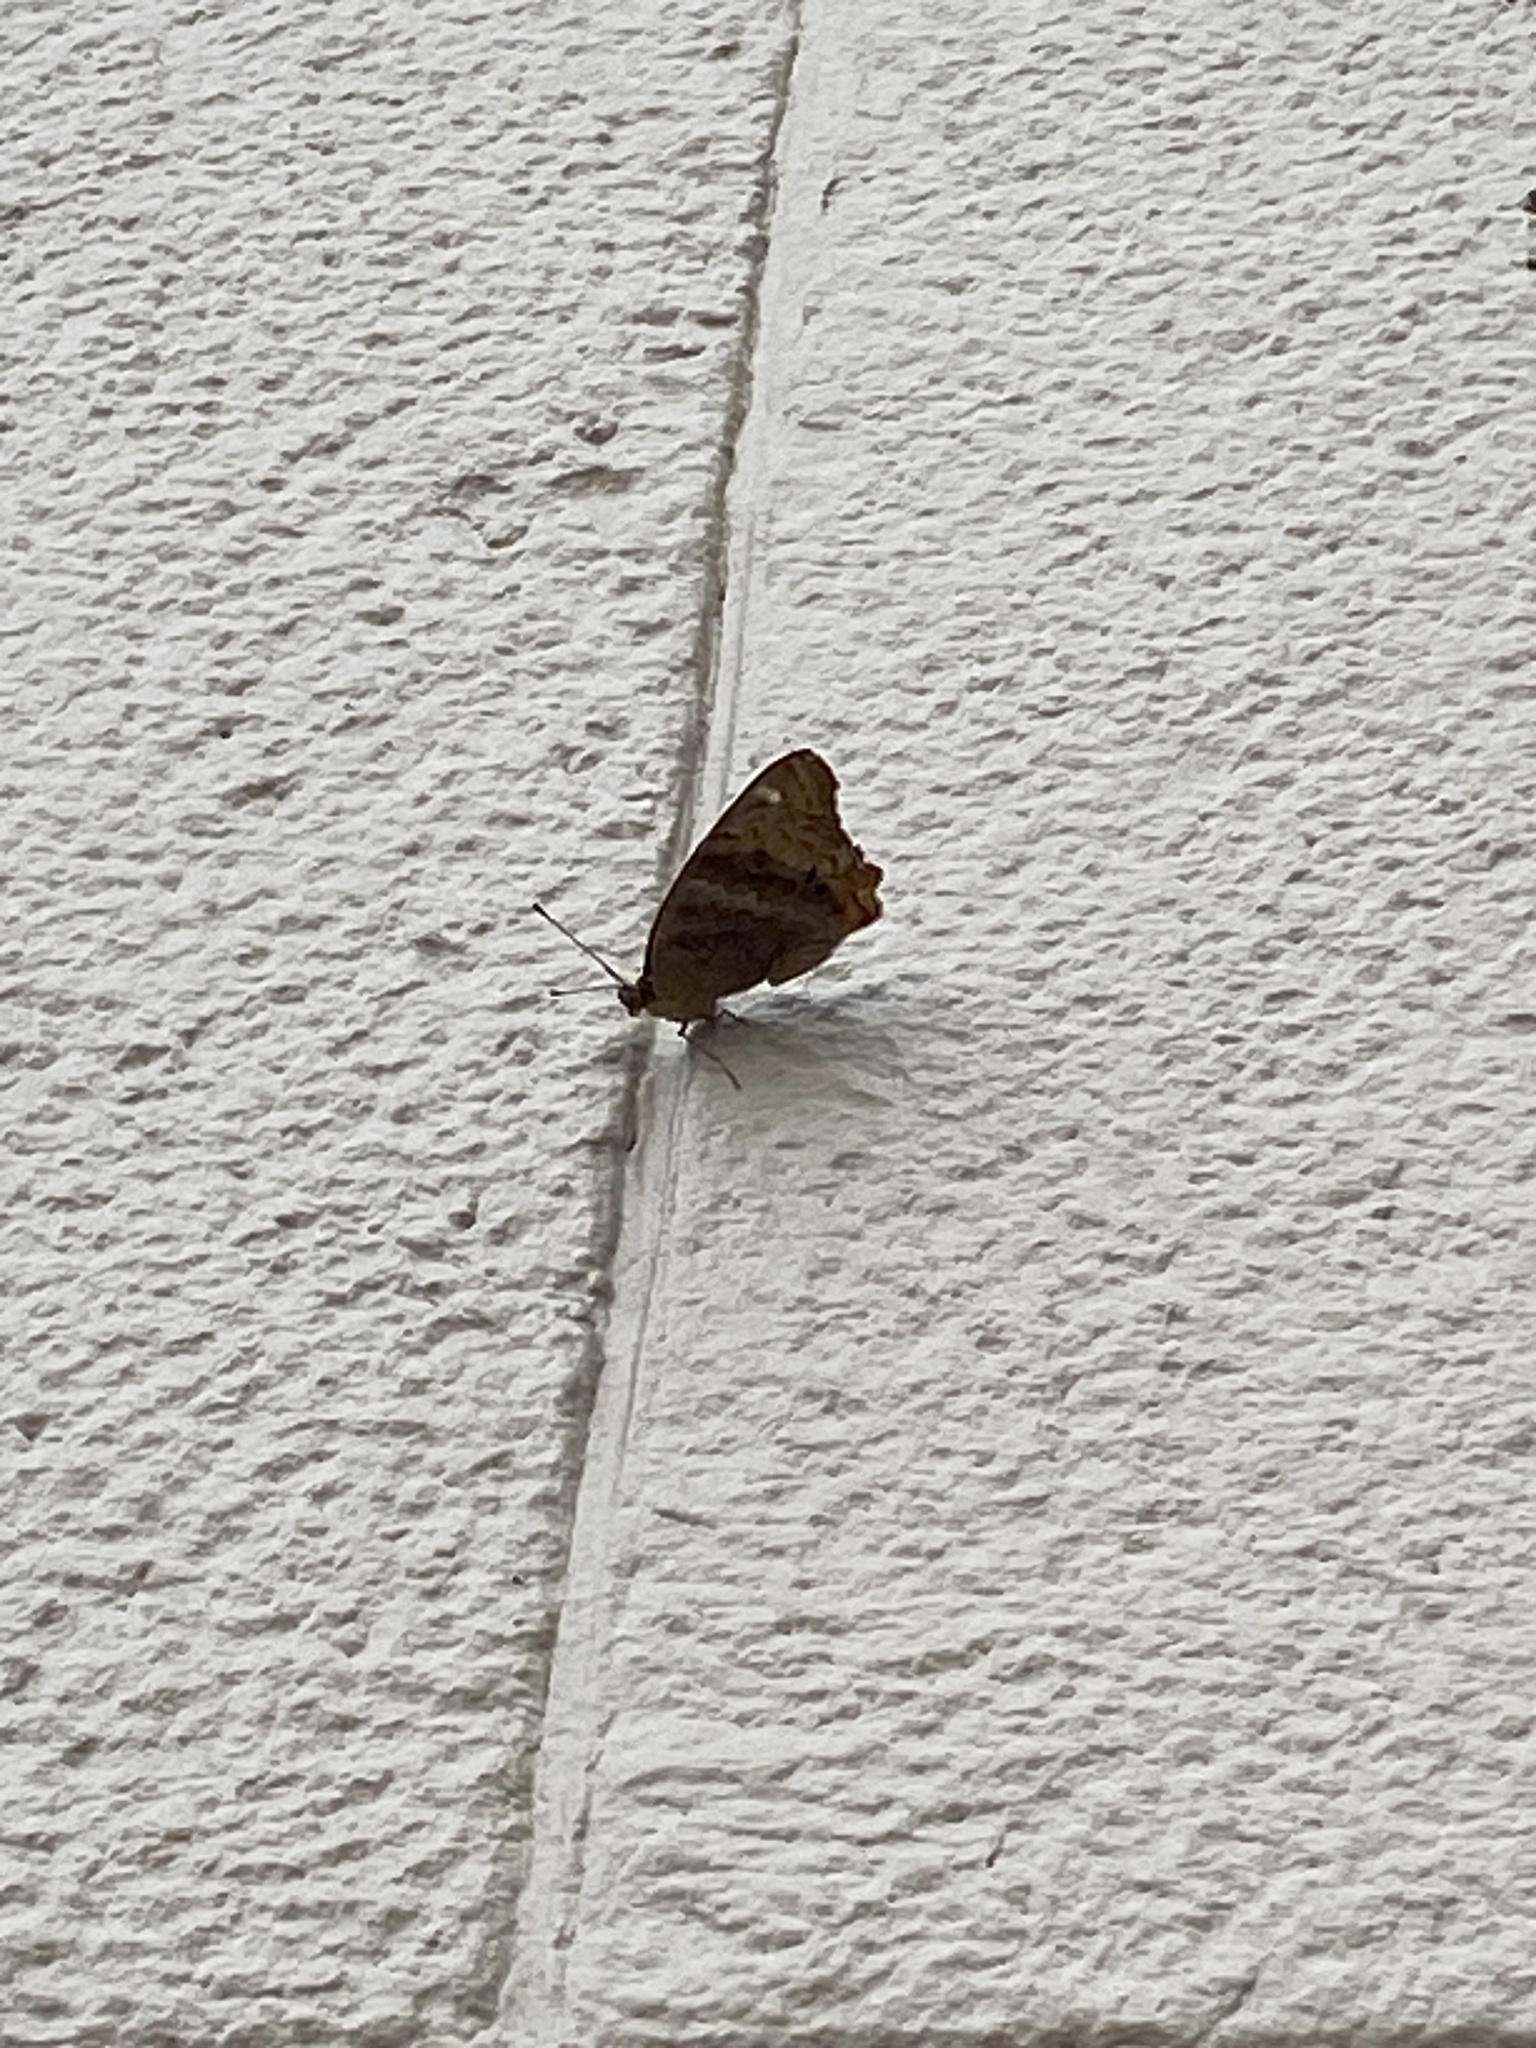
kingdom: Animalia
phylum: Arthropoda
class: Insecta
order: Lepidoptera
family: Nymphalidae
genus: Junonia
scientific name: Junonia lavinia
